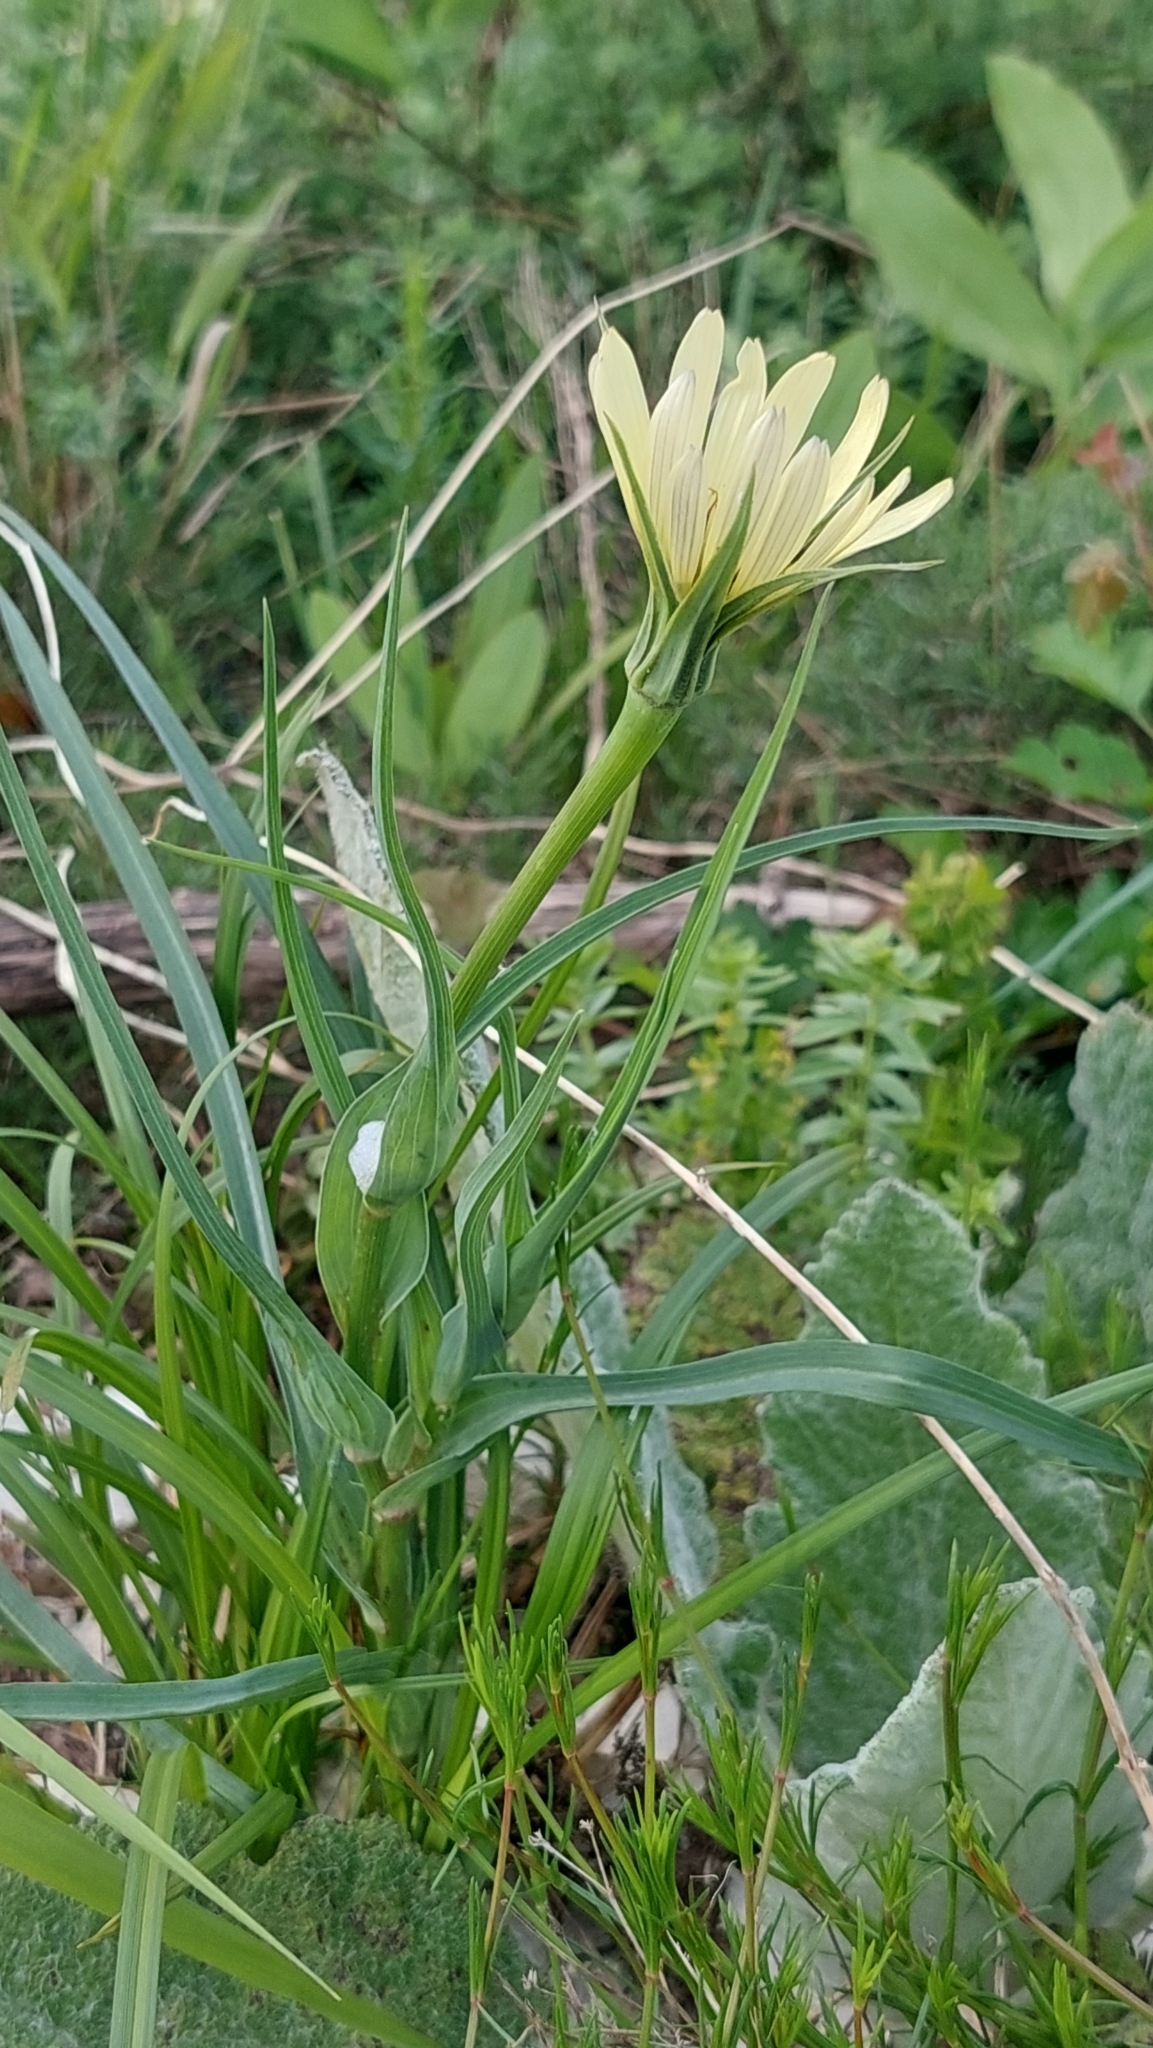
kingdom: Plantae
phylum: Tracheophyta
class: Magnoliopsida
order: Asterales
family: Asteraceae
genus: Tragopogon
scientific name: Tragopogon dubius
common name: Yellow salsify
